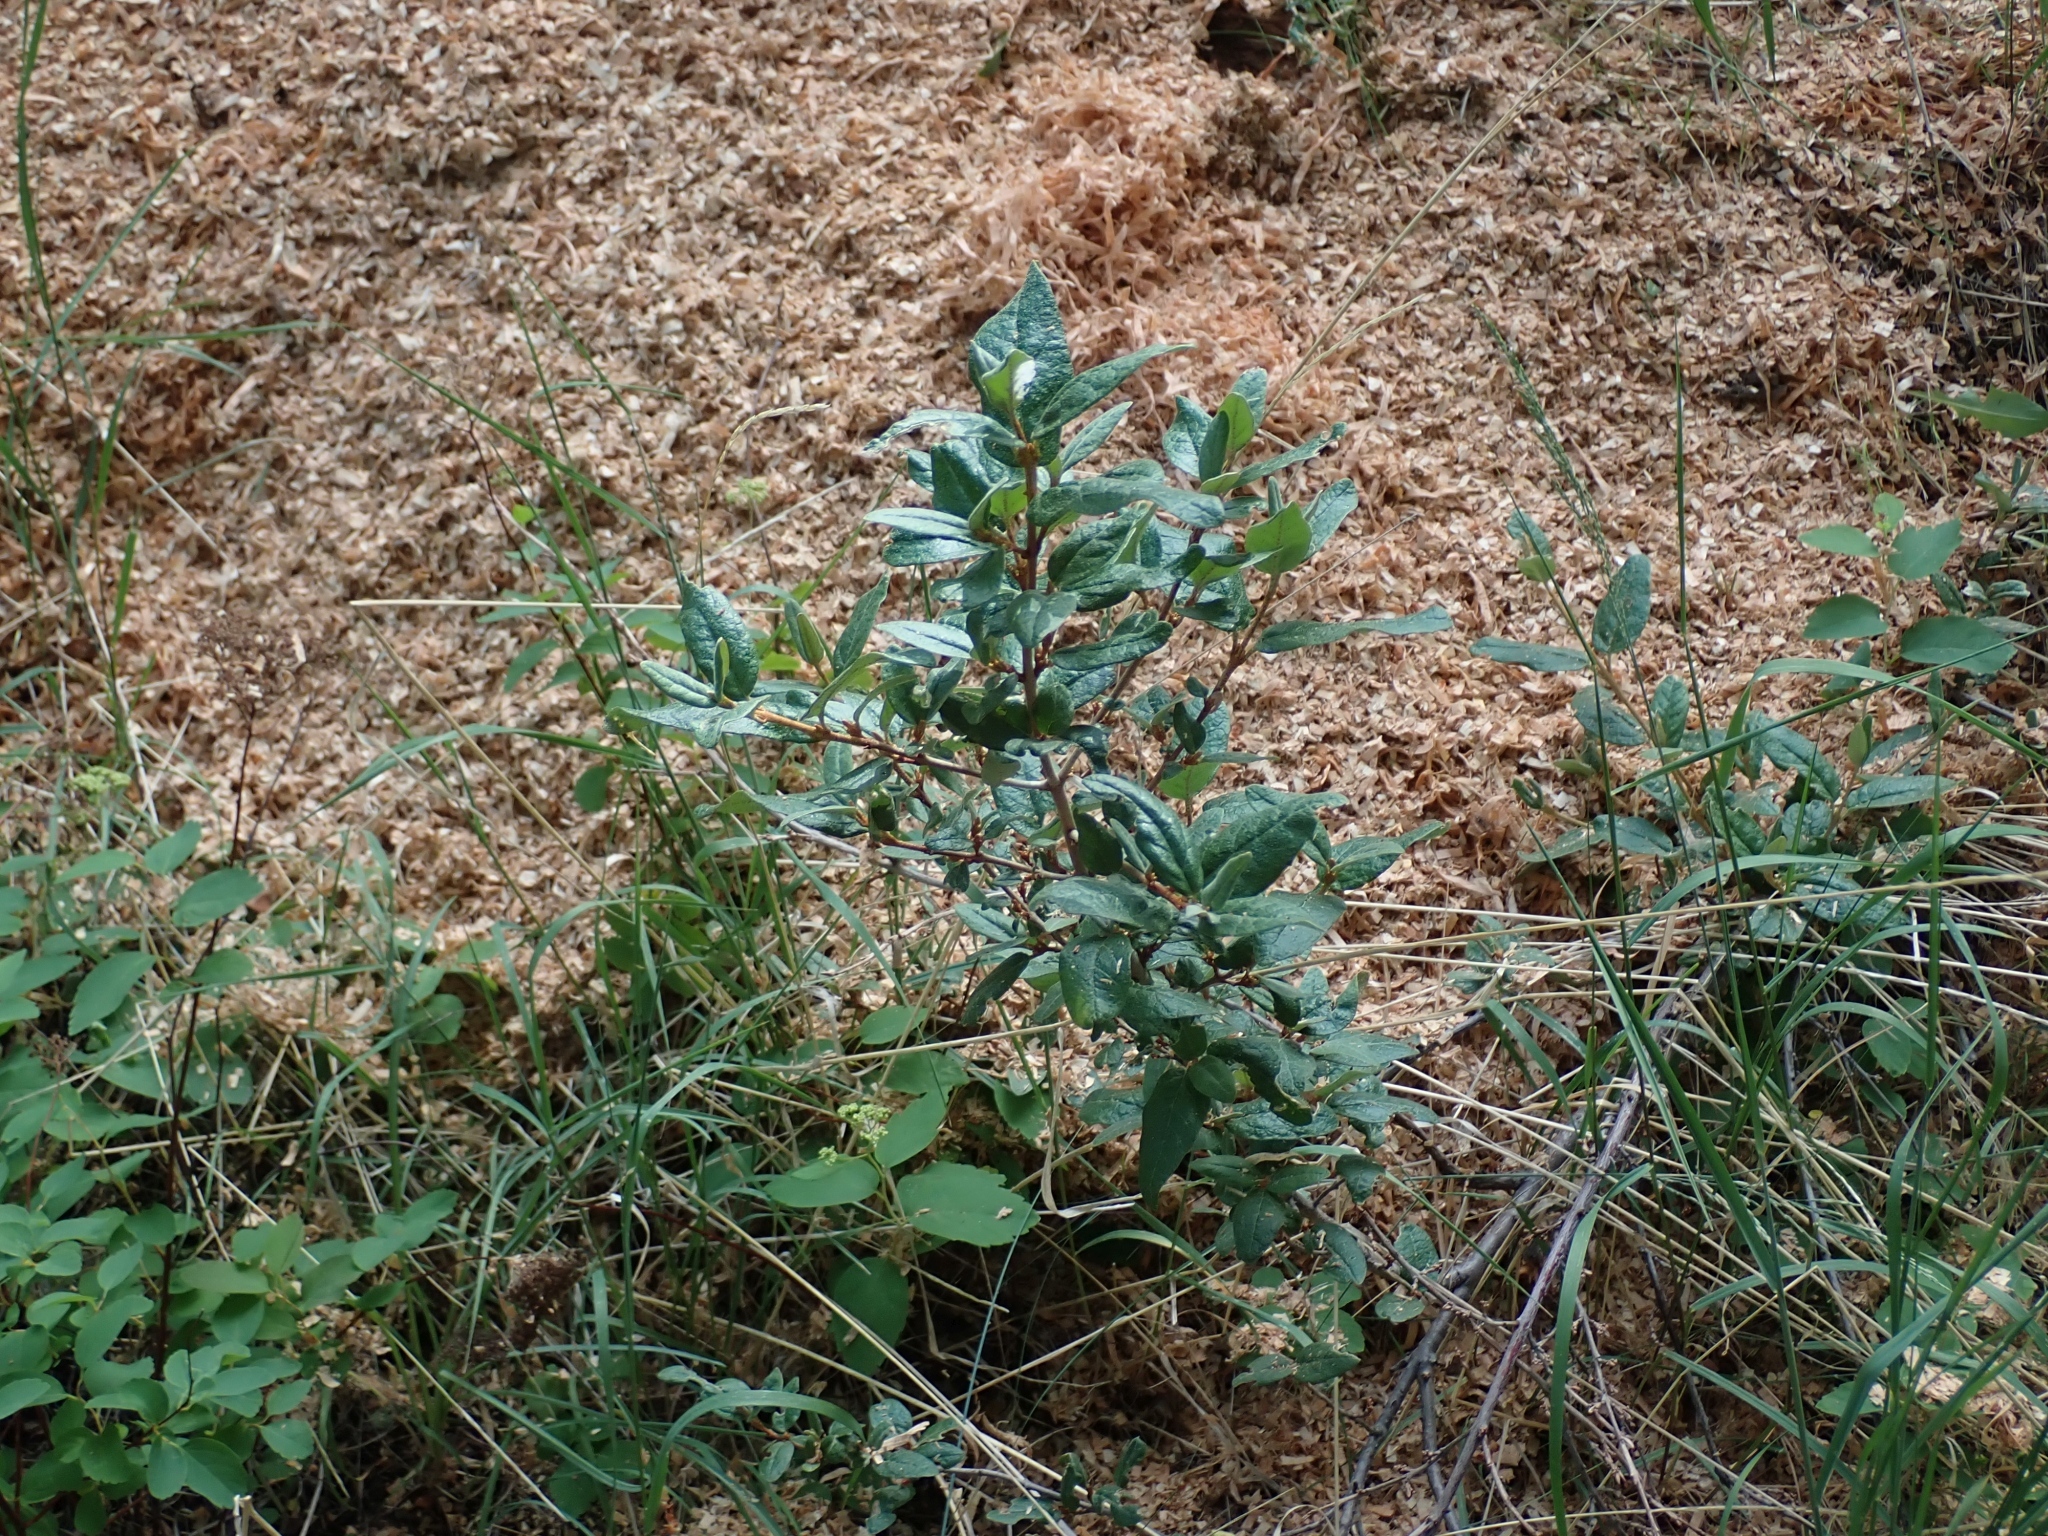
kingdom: Plantae
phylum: Tracheophyta
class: Magnoliopsida
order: Rosales
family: Elaeagnaceae
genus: Shepherdia
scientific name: Shepherdia canadensis
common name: Soapberry
